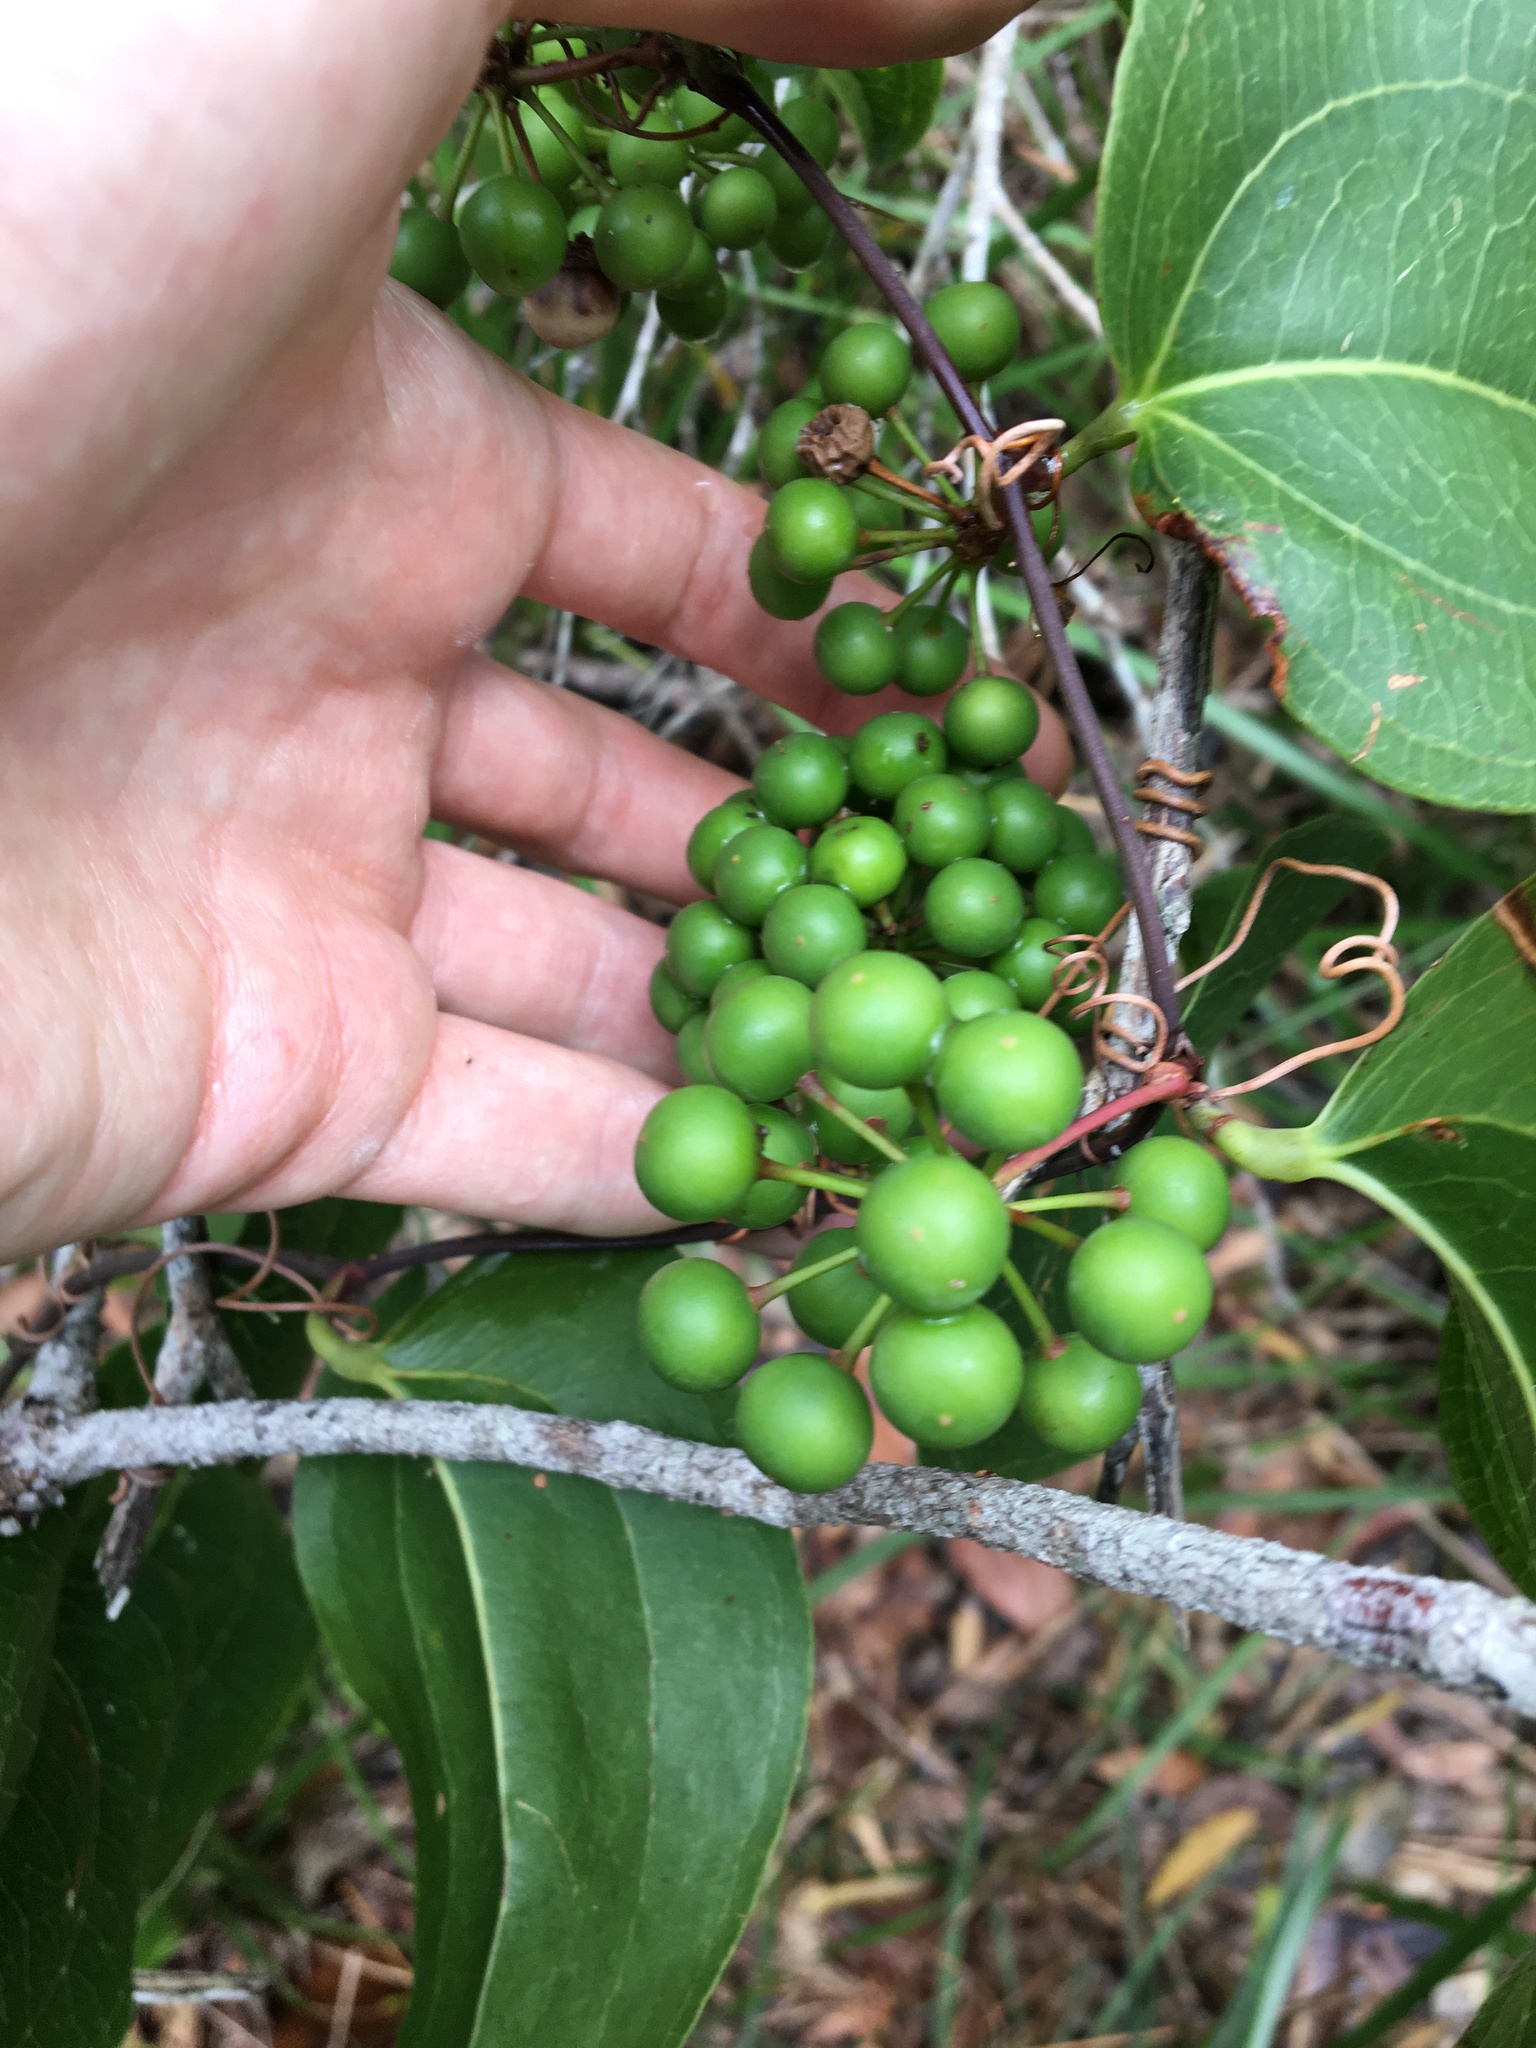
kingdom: Plantae
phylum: Tracheophyta
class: Liliopsida
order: Liliales
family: Smilacaceae
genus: Smilax
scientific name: Smilax australis
